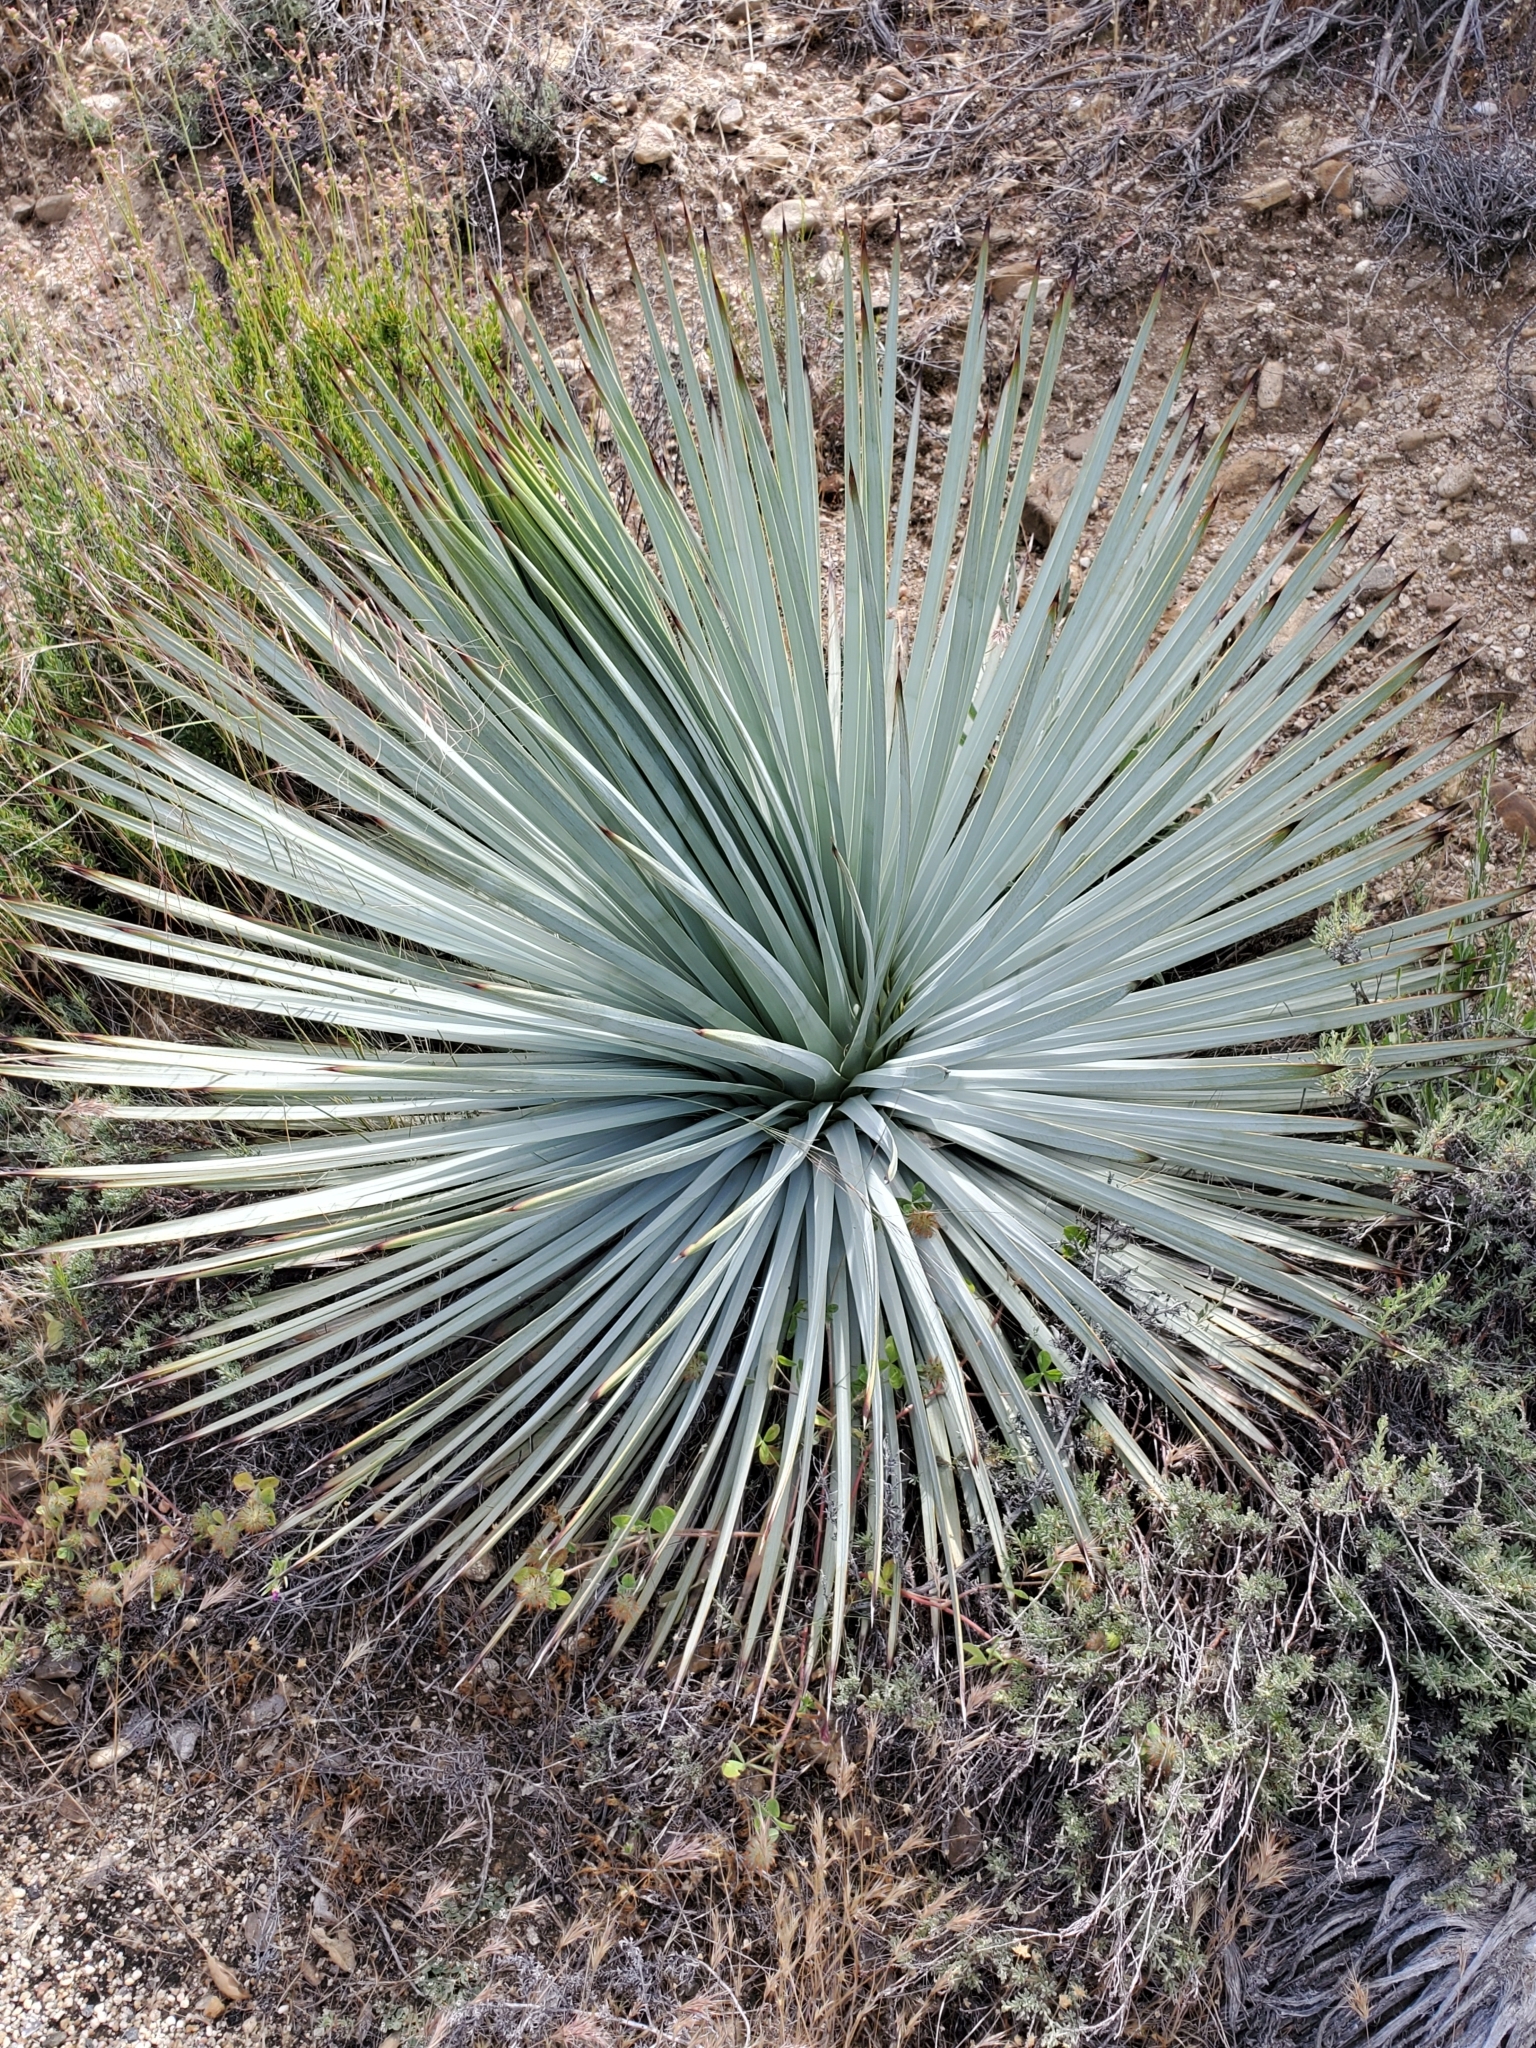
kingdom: Plantae
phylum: Tracheophyta
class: Liliopsida
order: Asparagales
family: Asparagaceae
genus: Hesperoyucca
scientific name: Hesperoyucca whipplei
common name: Our lord's-candle
